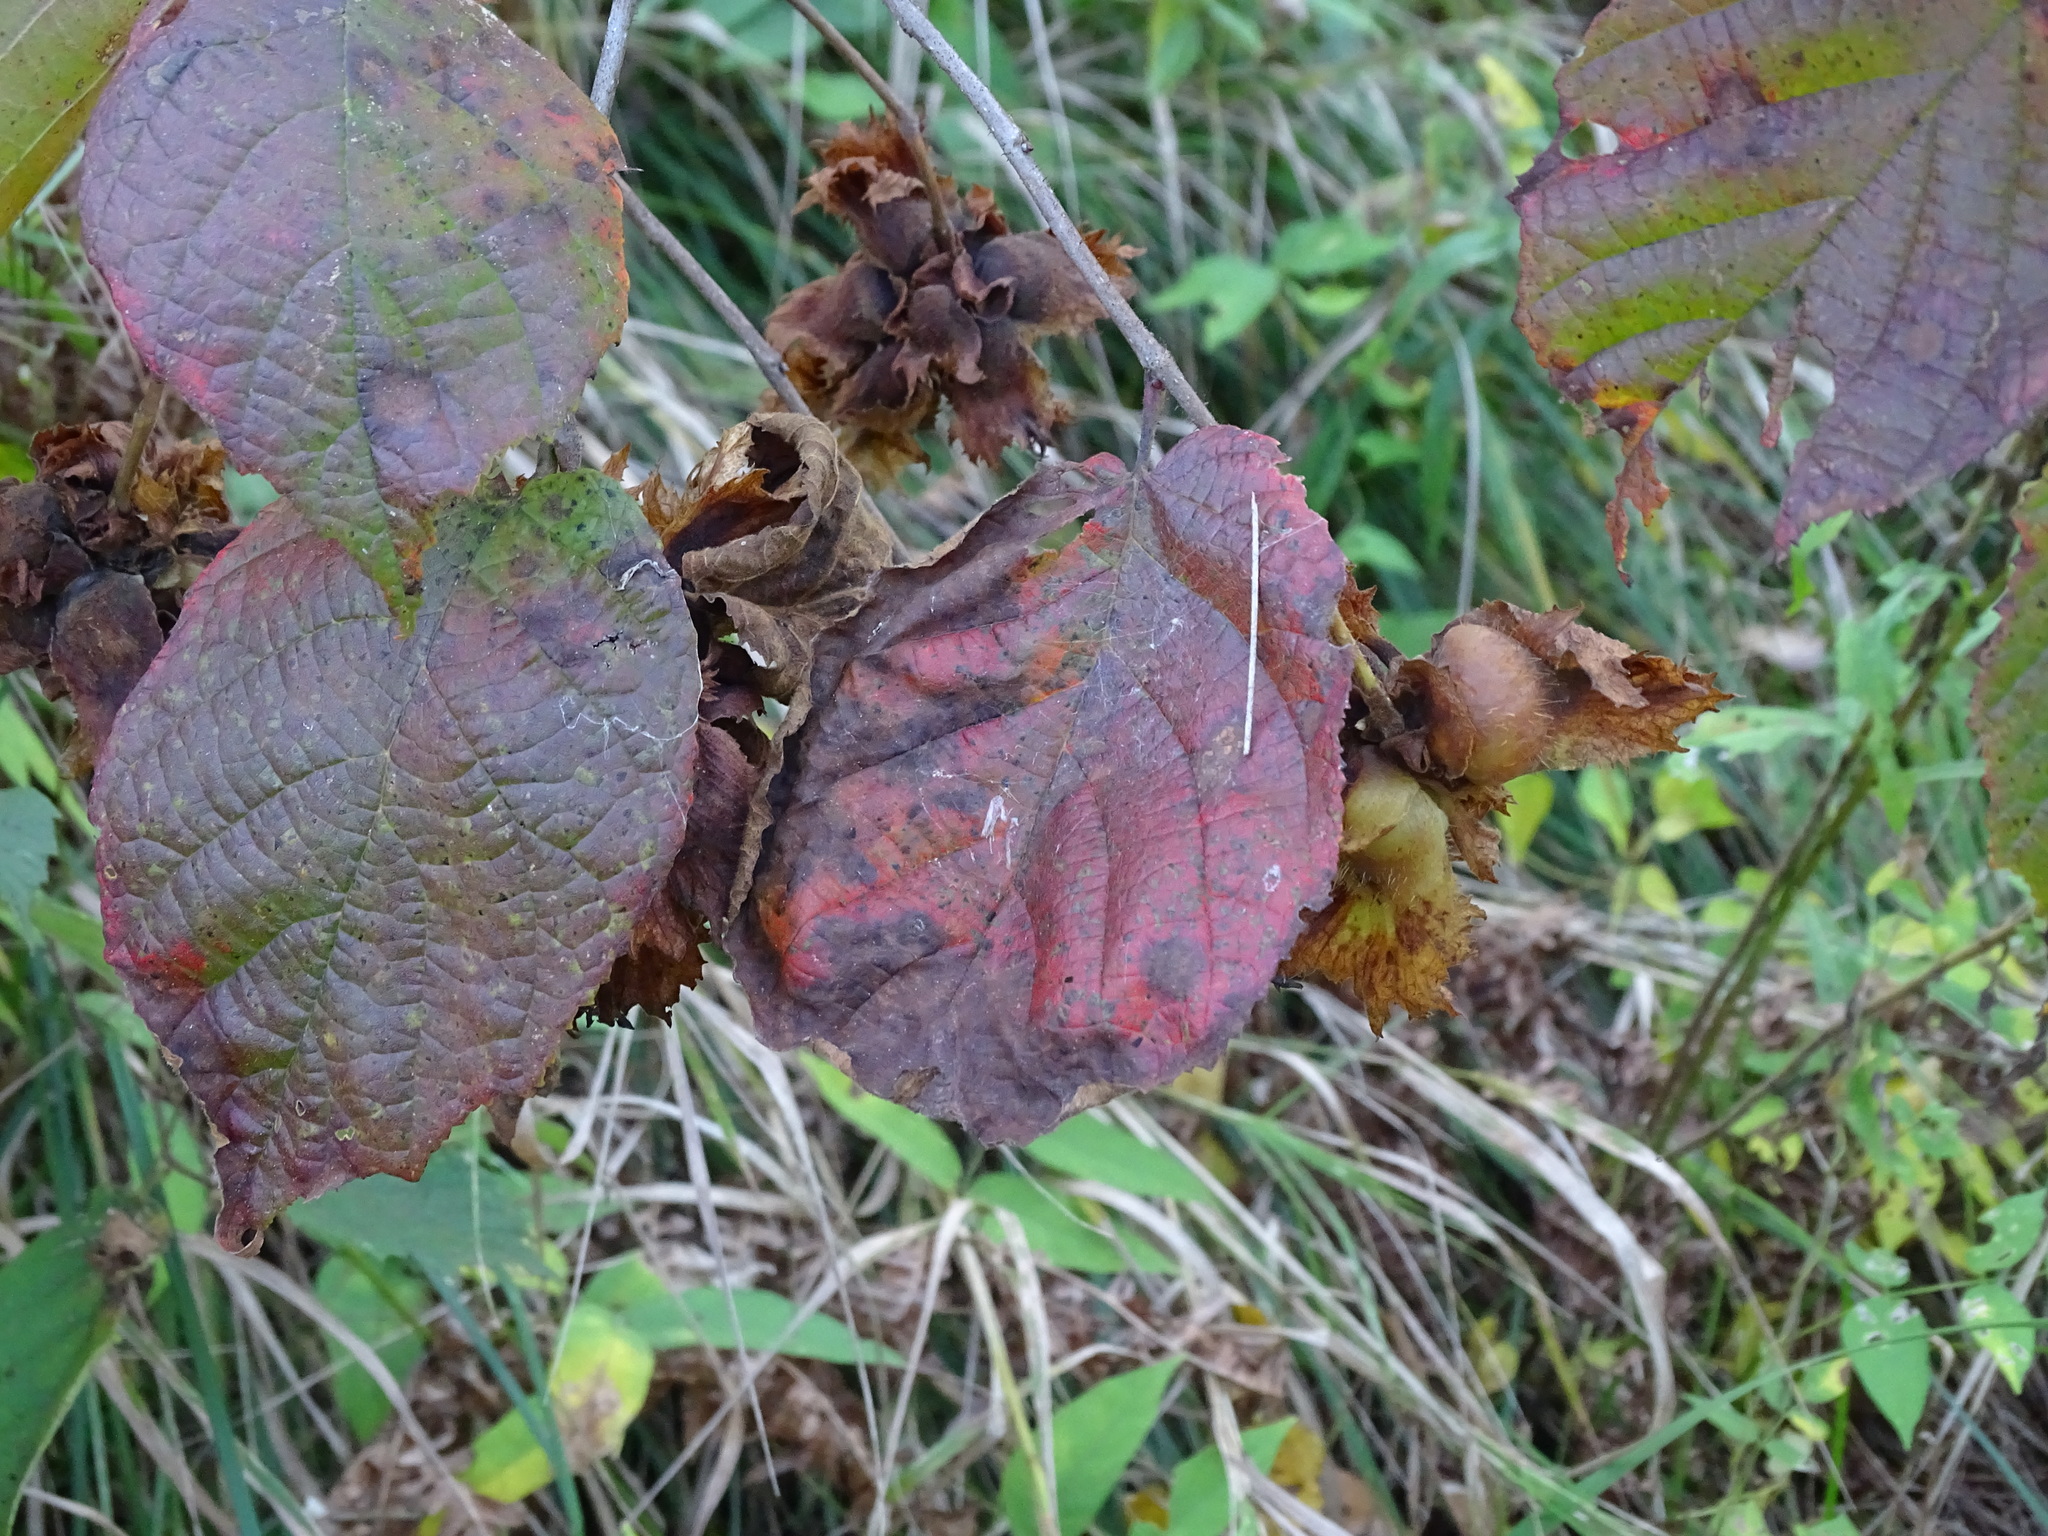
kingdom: Plantae
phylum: Tracheophyta
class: Magnoliopsida
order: Fagales
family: Betulaceae
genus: Corylus
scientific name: Corylus americana
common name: American hazel
